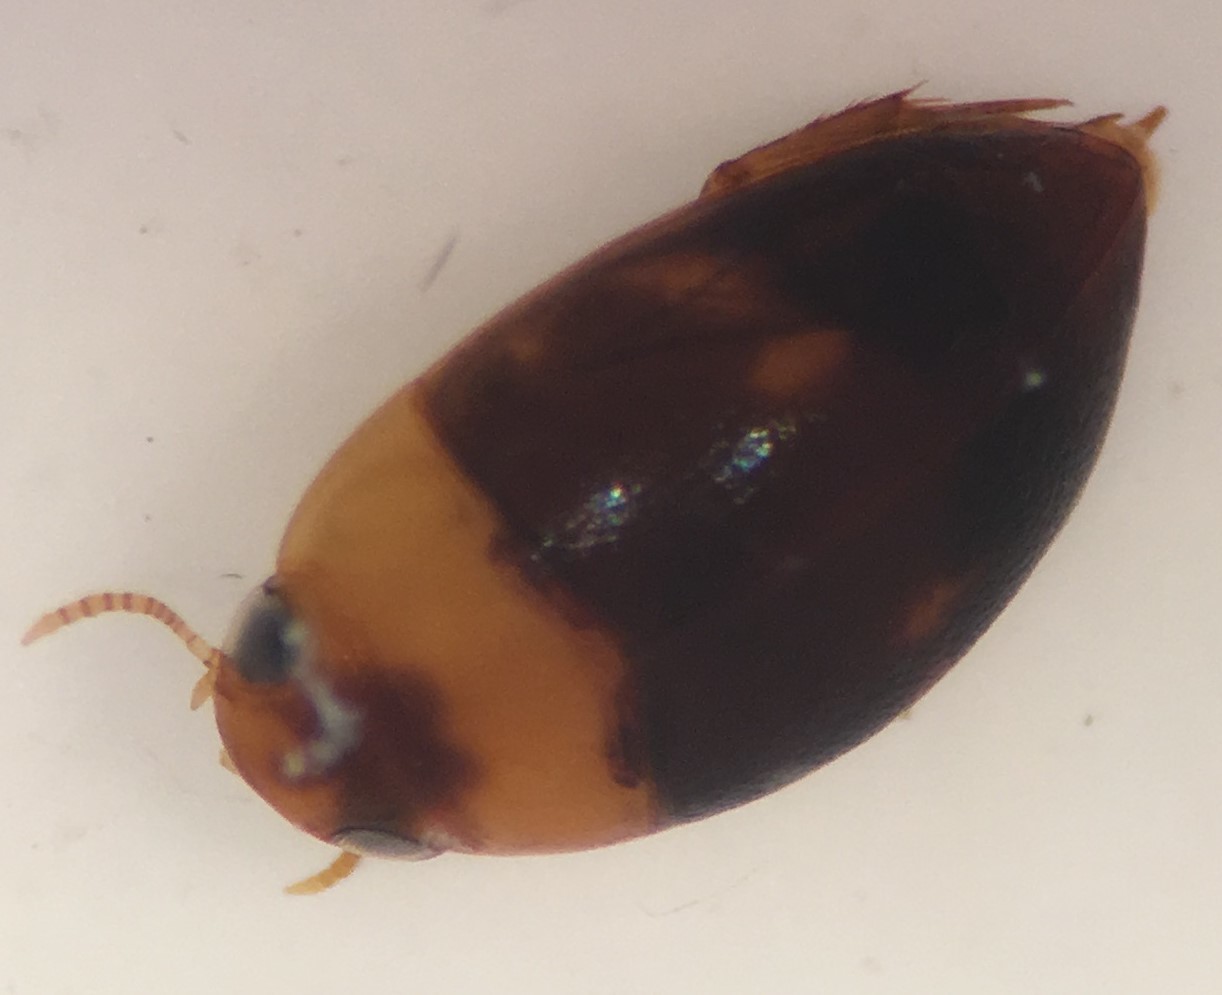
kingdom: Animalia
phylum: Arthropoda
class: Insecta
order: Coleoptera
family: Noteridae
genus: Suphisellus
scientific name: Suphisellus puncticollis
